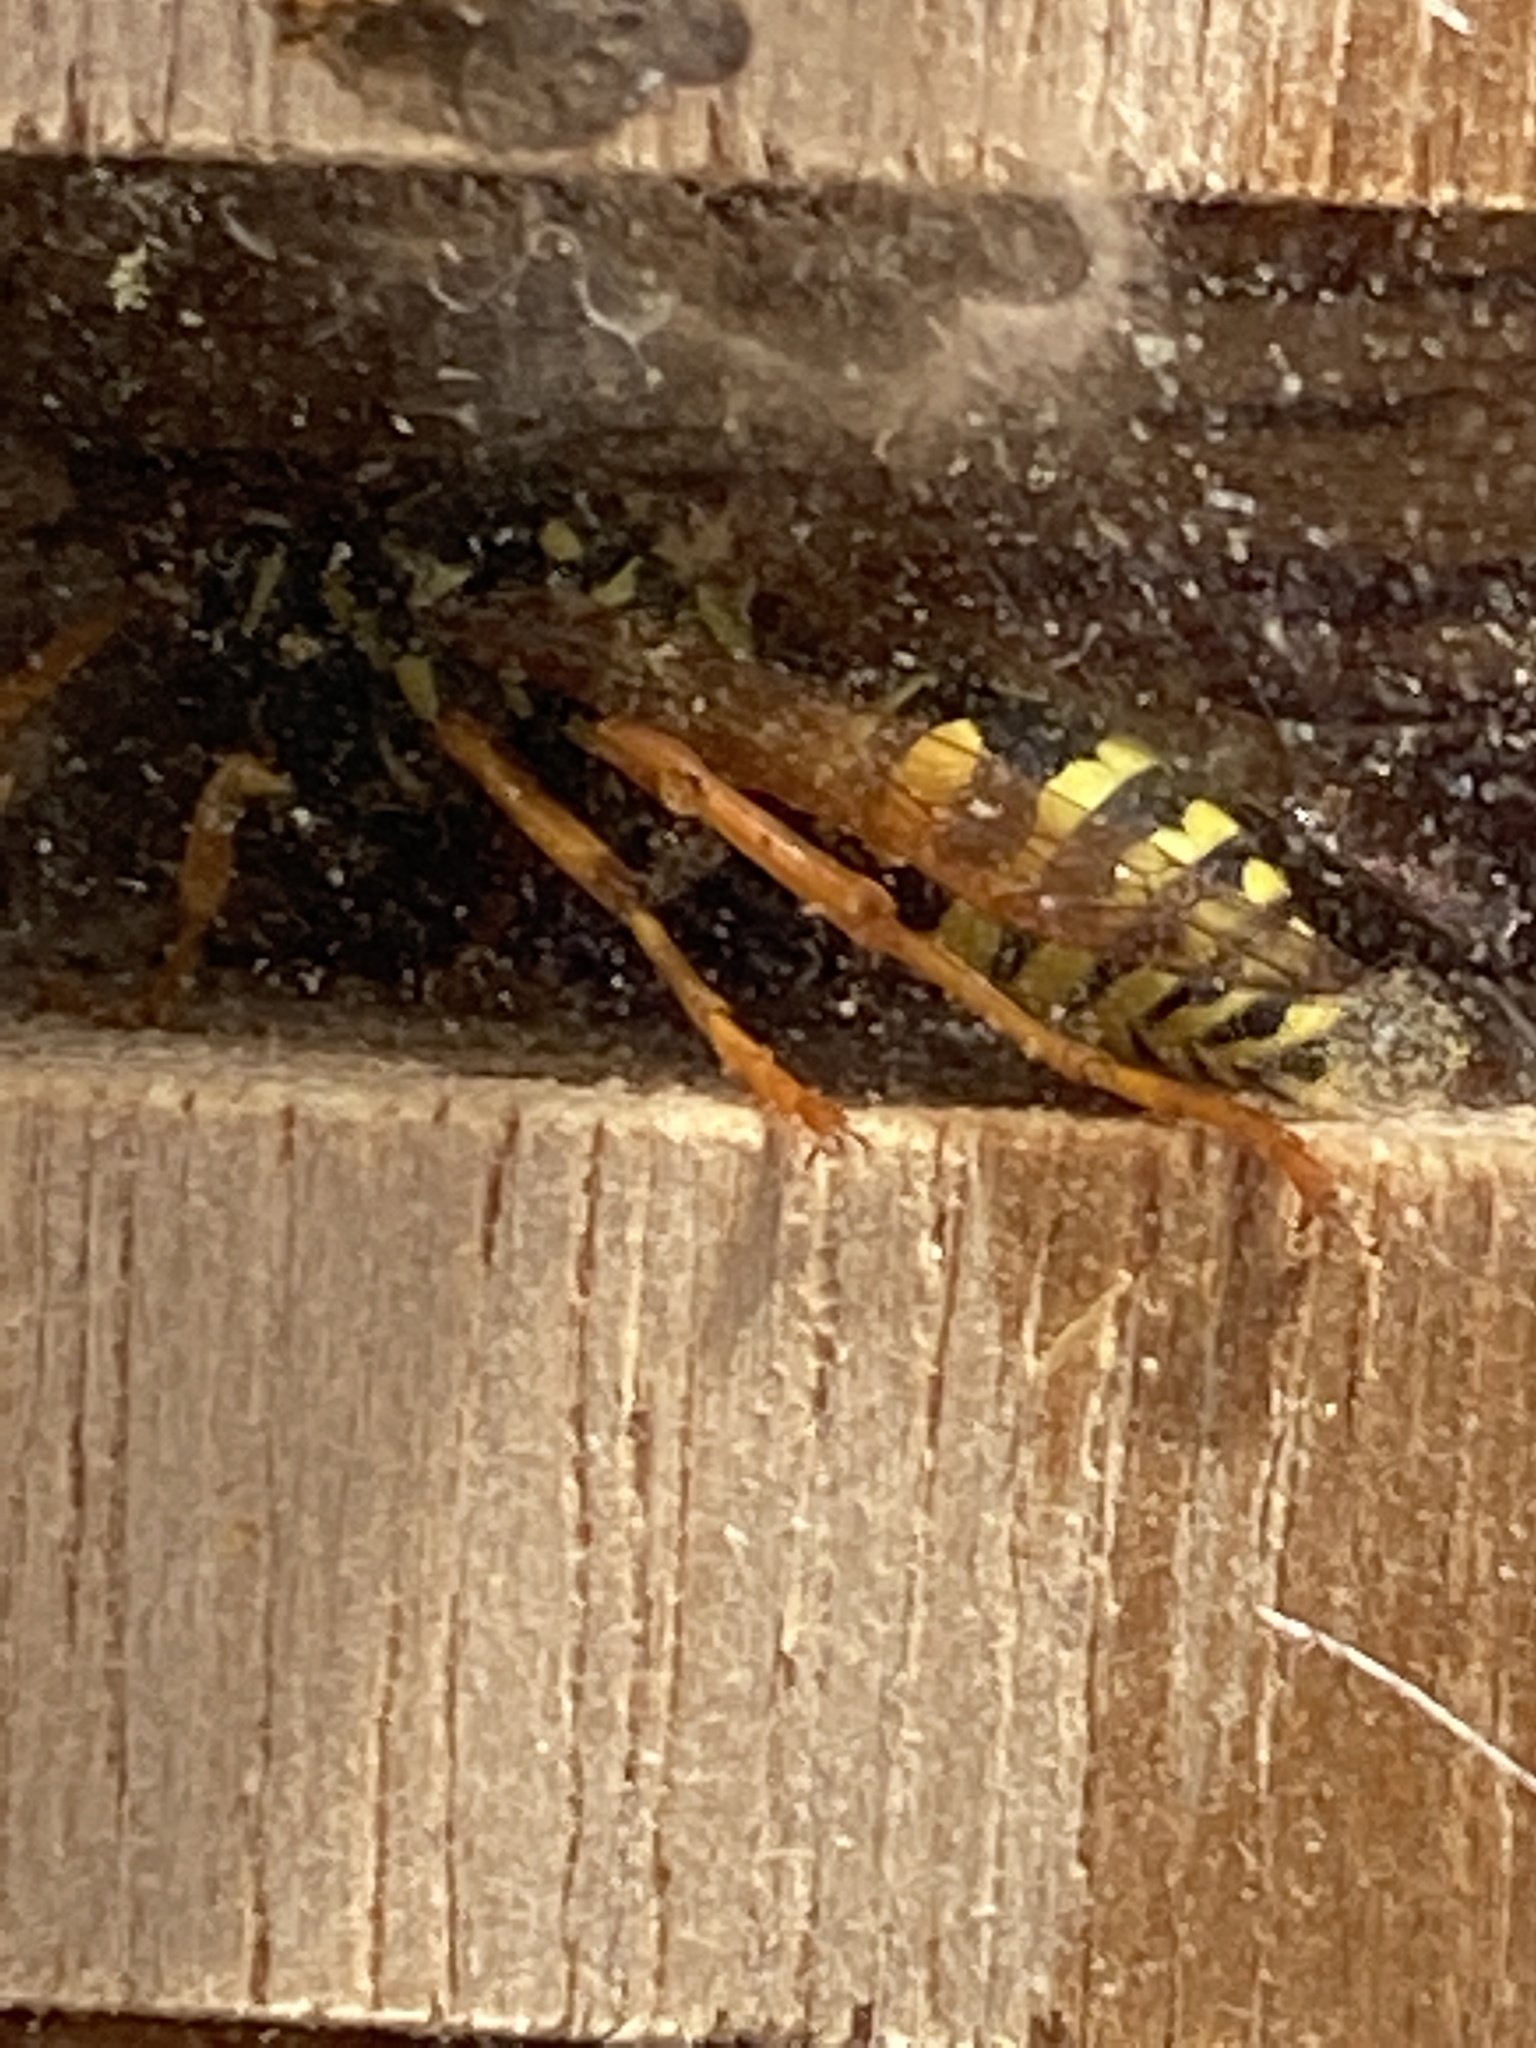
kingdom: Animalia
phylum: Arthropoda
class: Insecta
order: Hymenoptera
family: Eumenidae
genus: Polistes
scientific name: Polistes dominula
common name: Paper wasp
